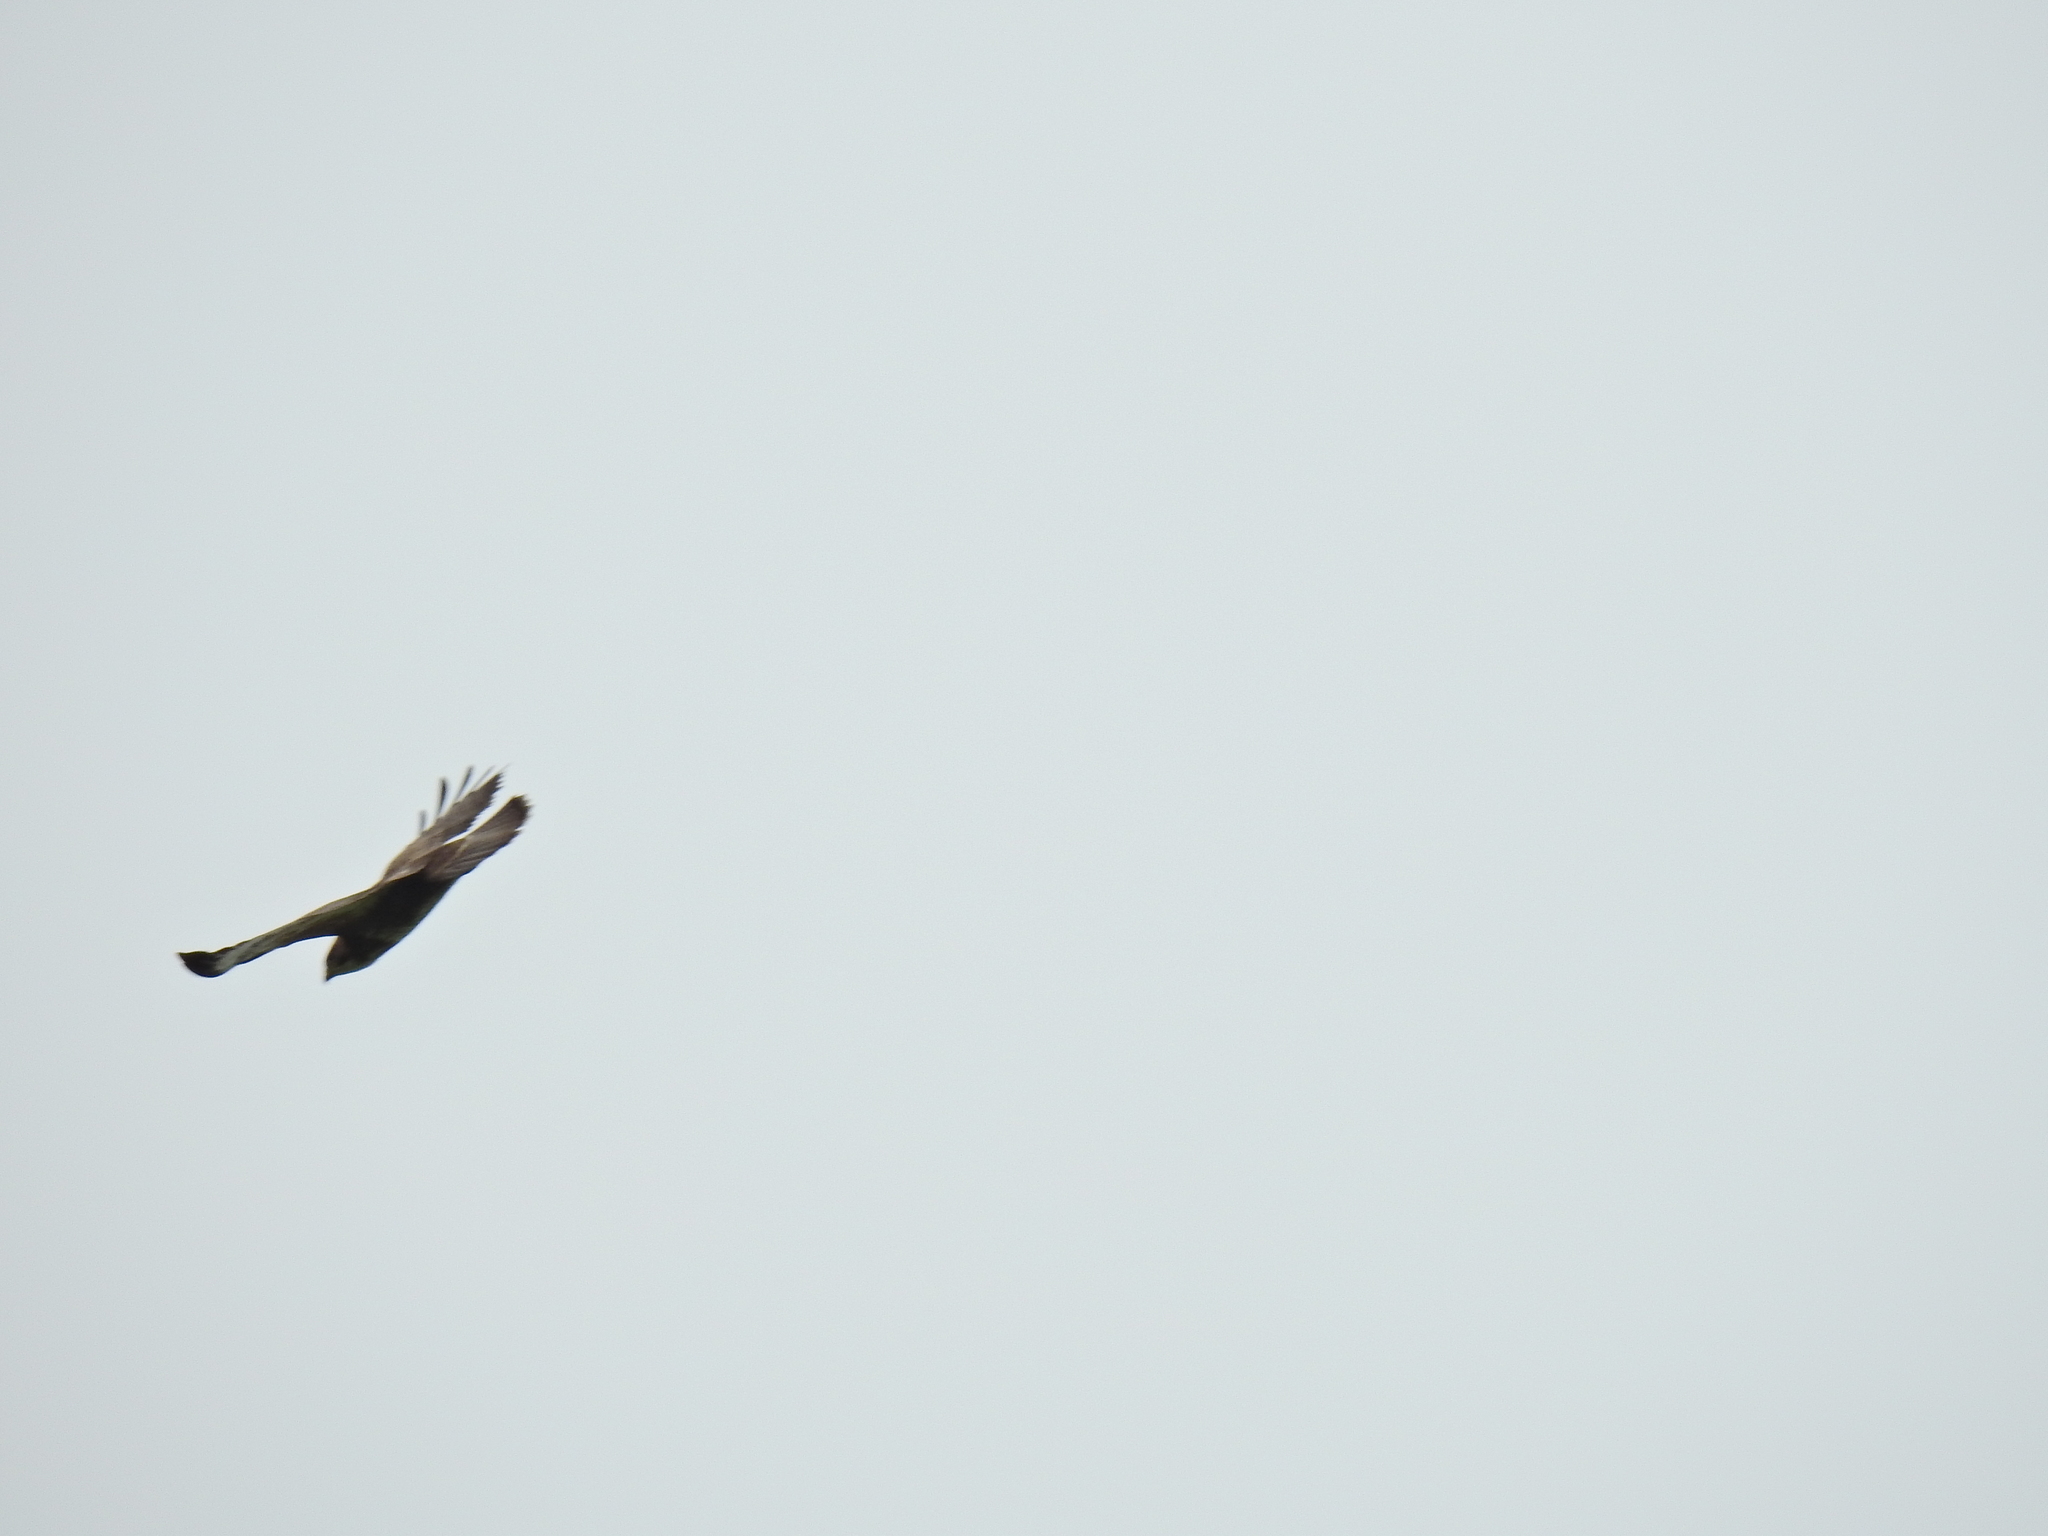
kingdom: Animalia
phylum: Chordata
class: Aves
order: Accipitriformes
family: Accipitridae
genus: Buteo
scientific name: Buteo buteo
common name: Common buzzard
